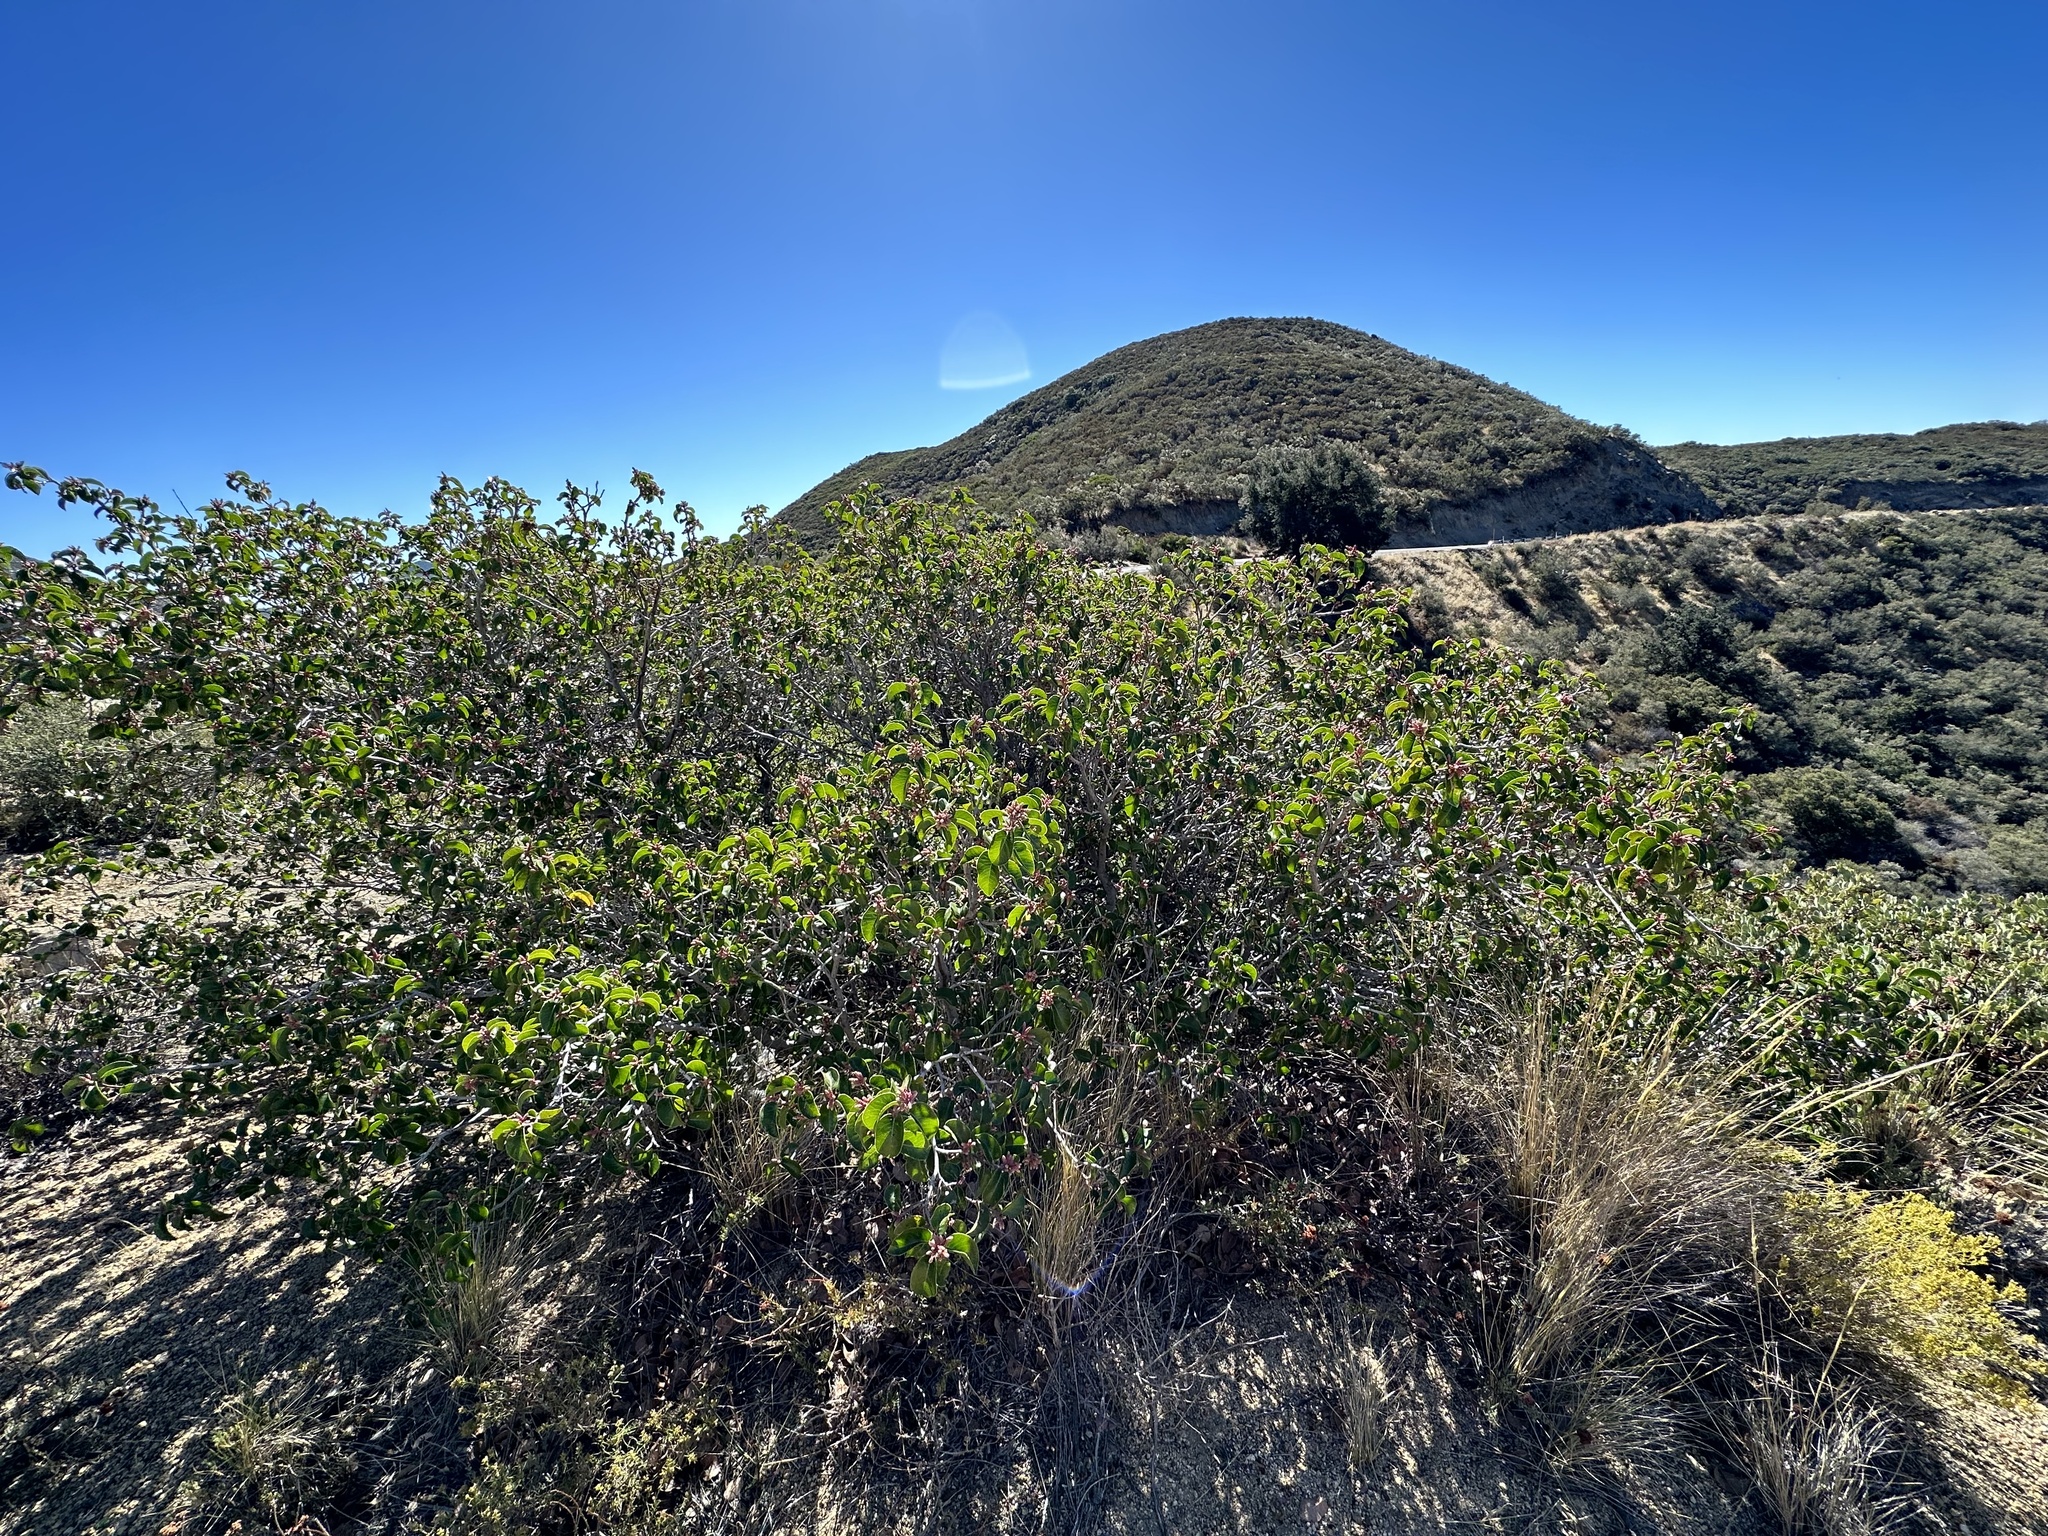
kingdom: Plantae
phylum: Tracheophyta
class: Magnoliopsida
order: Sapindales
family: Anacardiaceae
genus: Rhus
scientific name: Rhus ovata
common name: Sugar sumac
